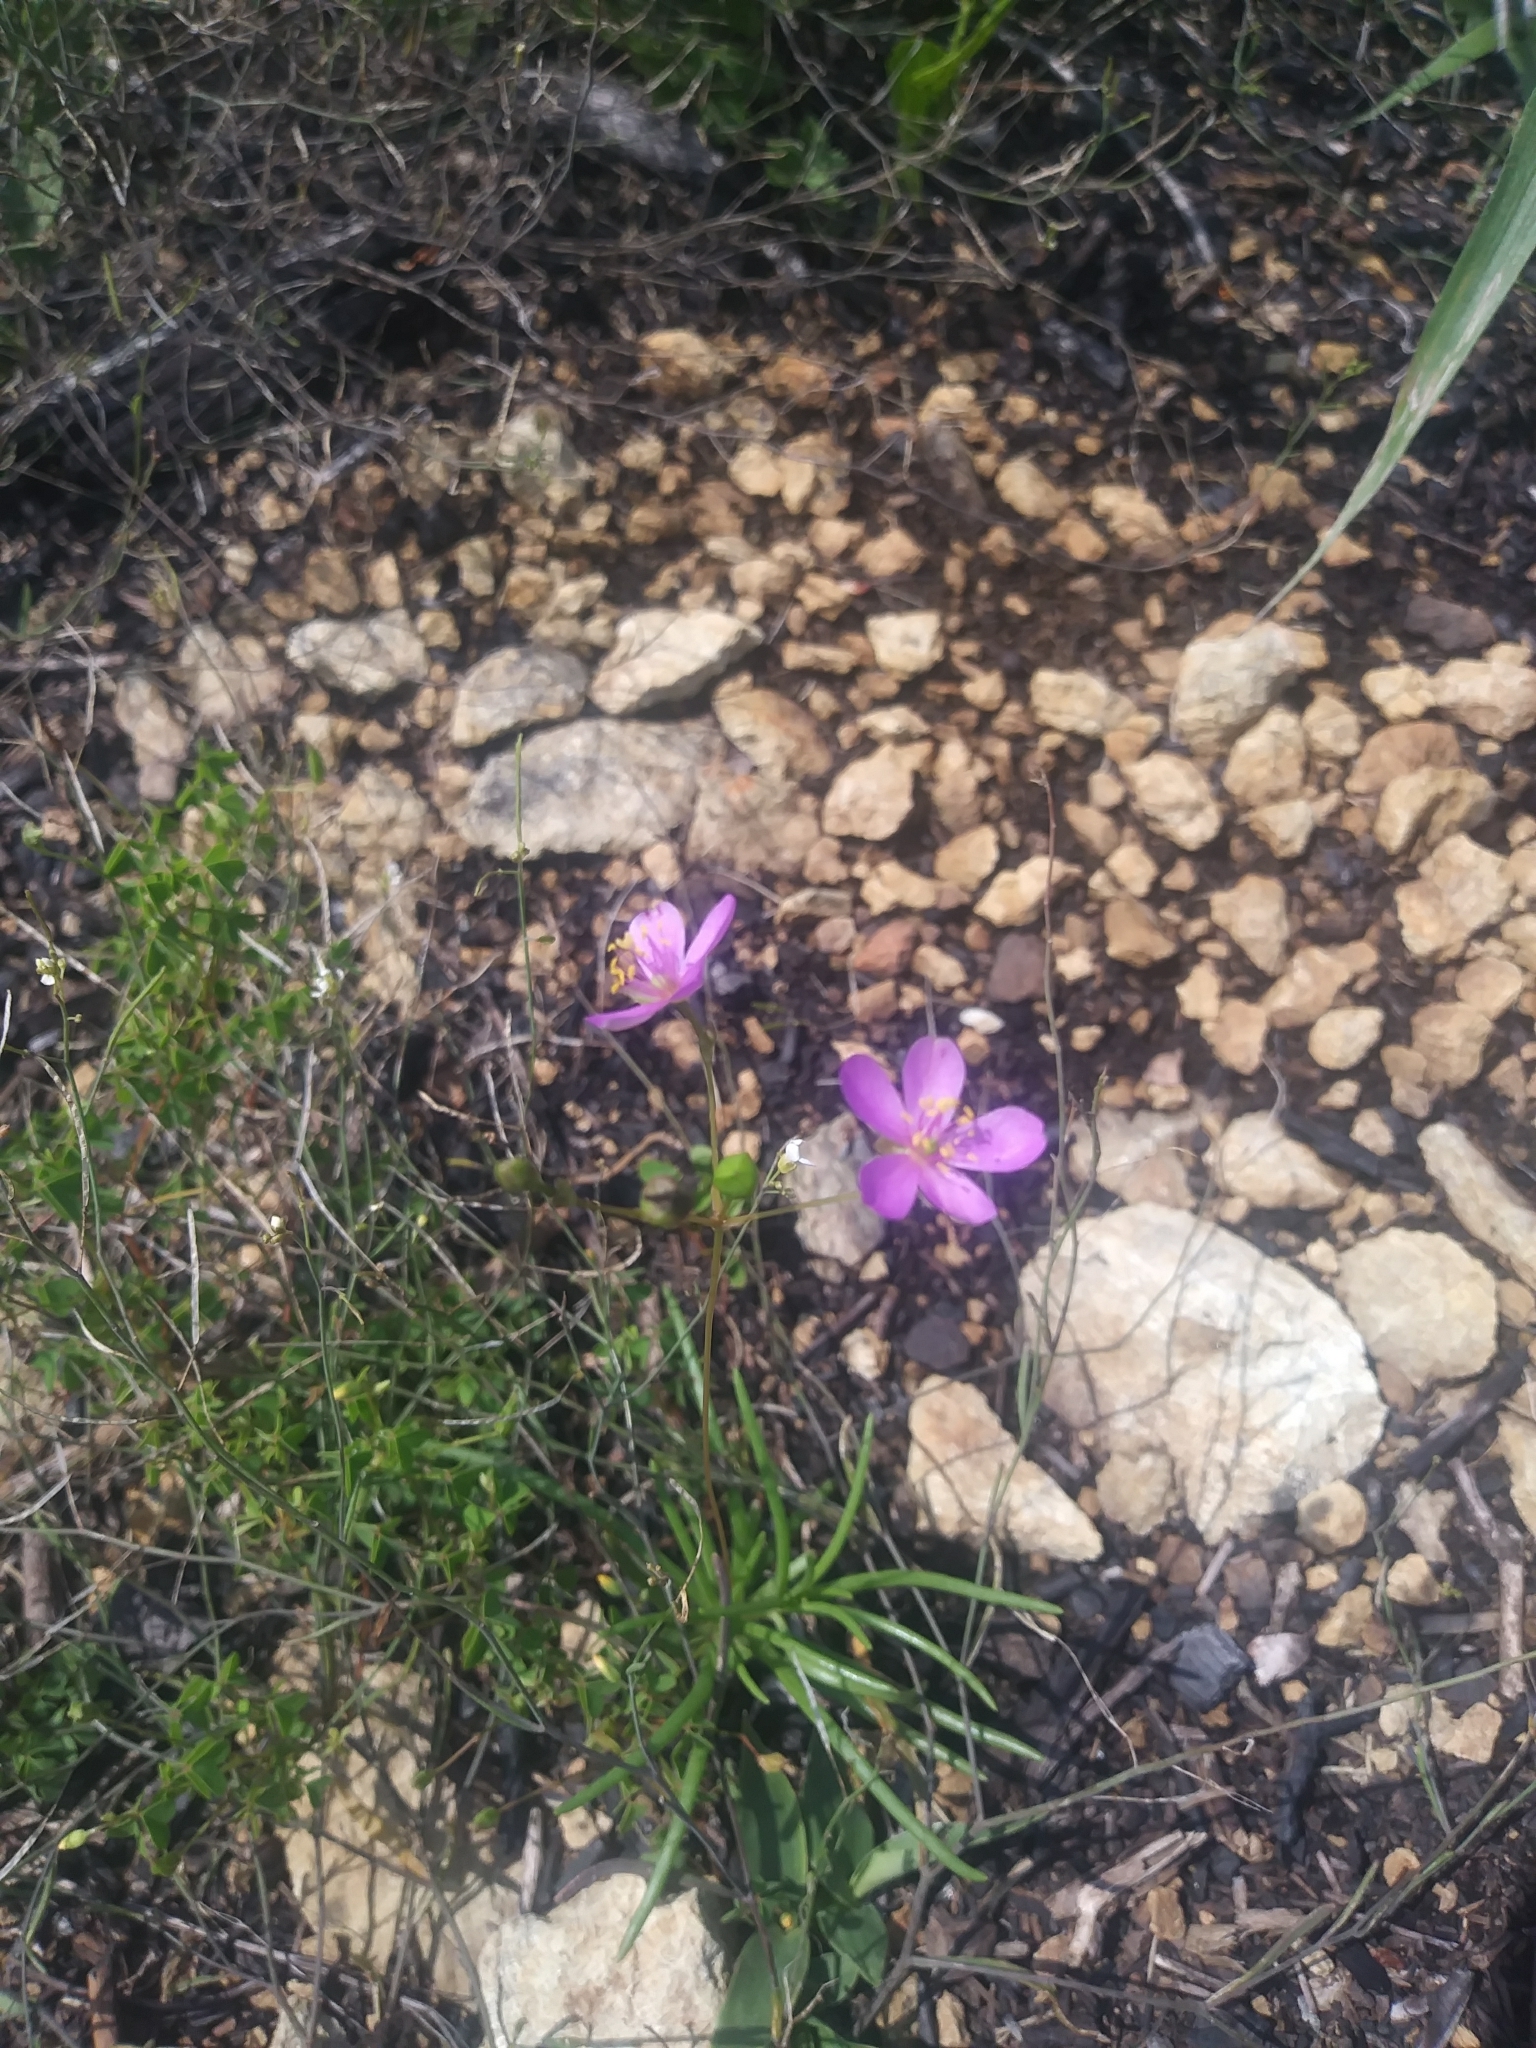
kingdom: Plantae
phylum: Tracheophyta
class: Magnoliopsida
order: Caryophyllales
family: Montiaceae
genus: Phemeranthus
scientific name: Phemeranthus teretifolius
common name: Quill fameflower
